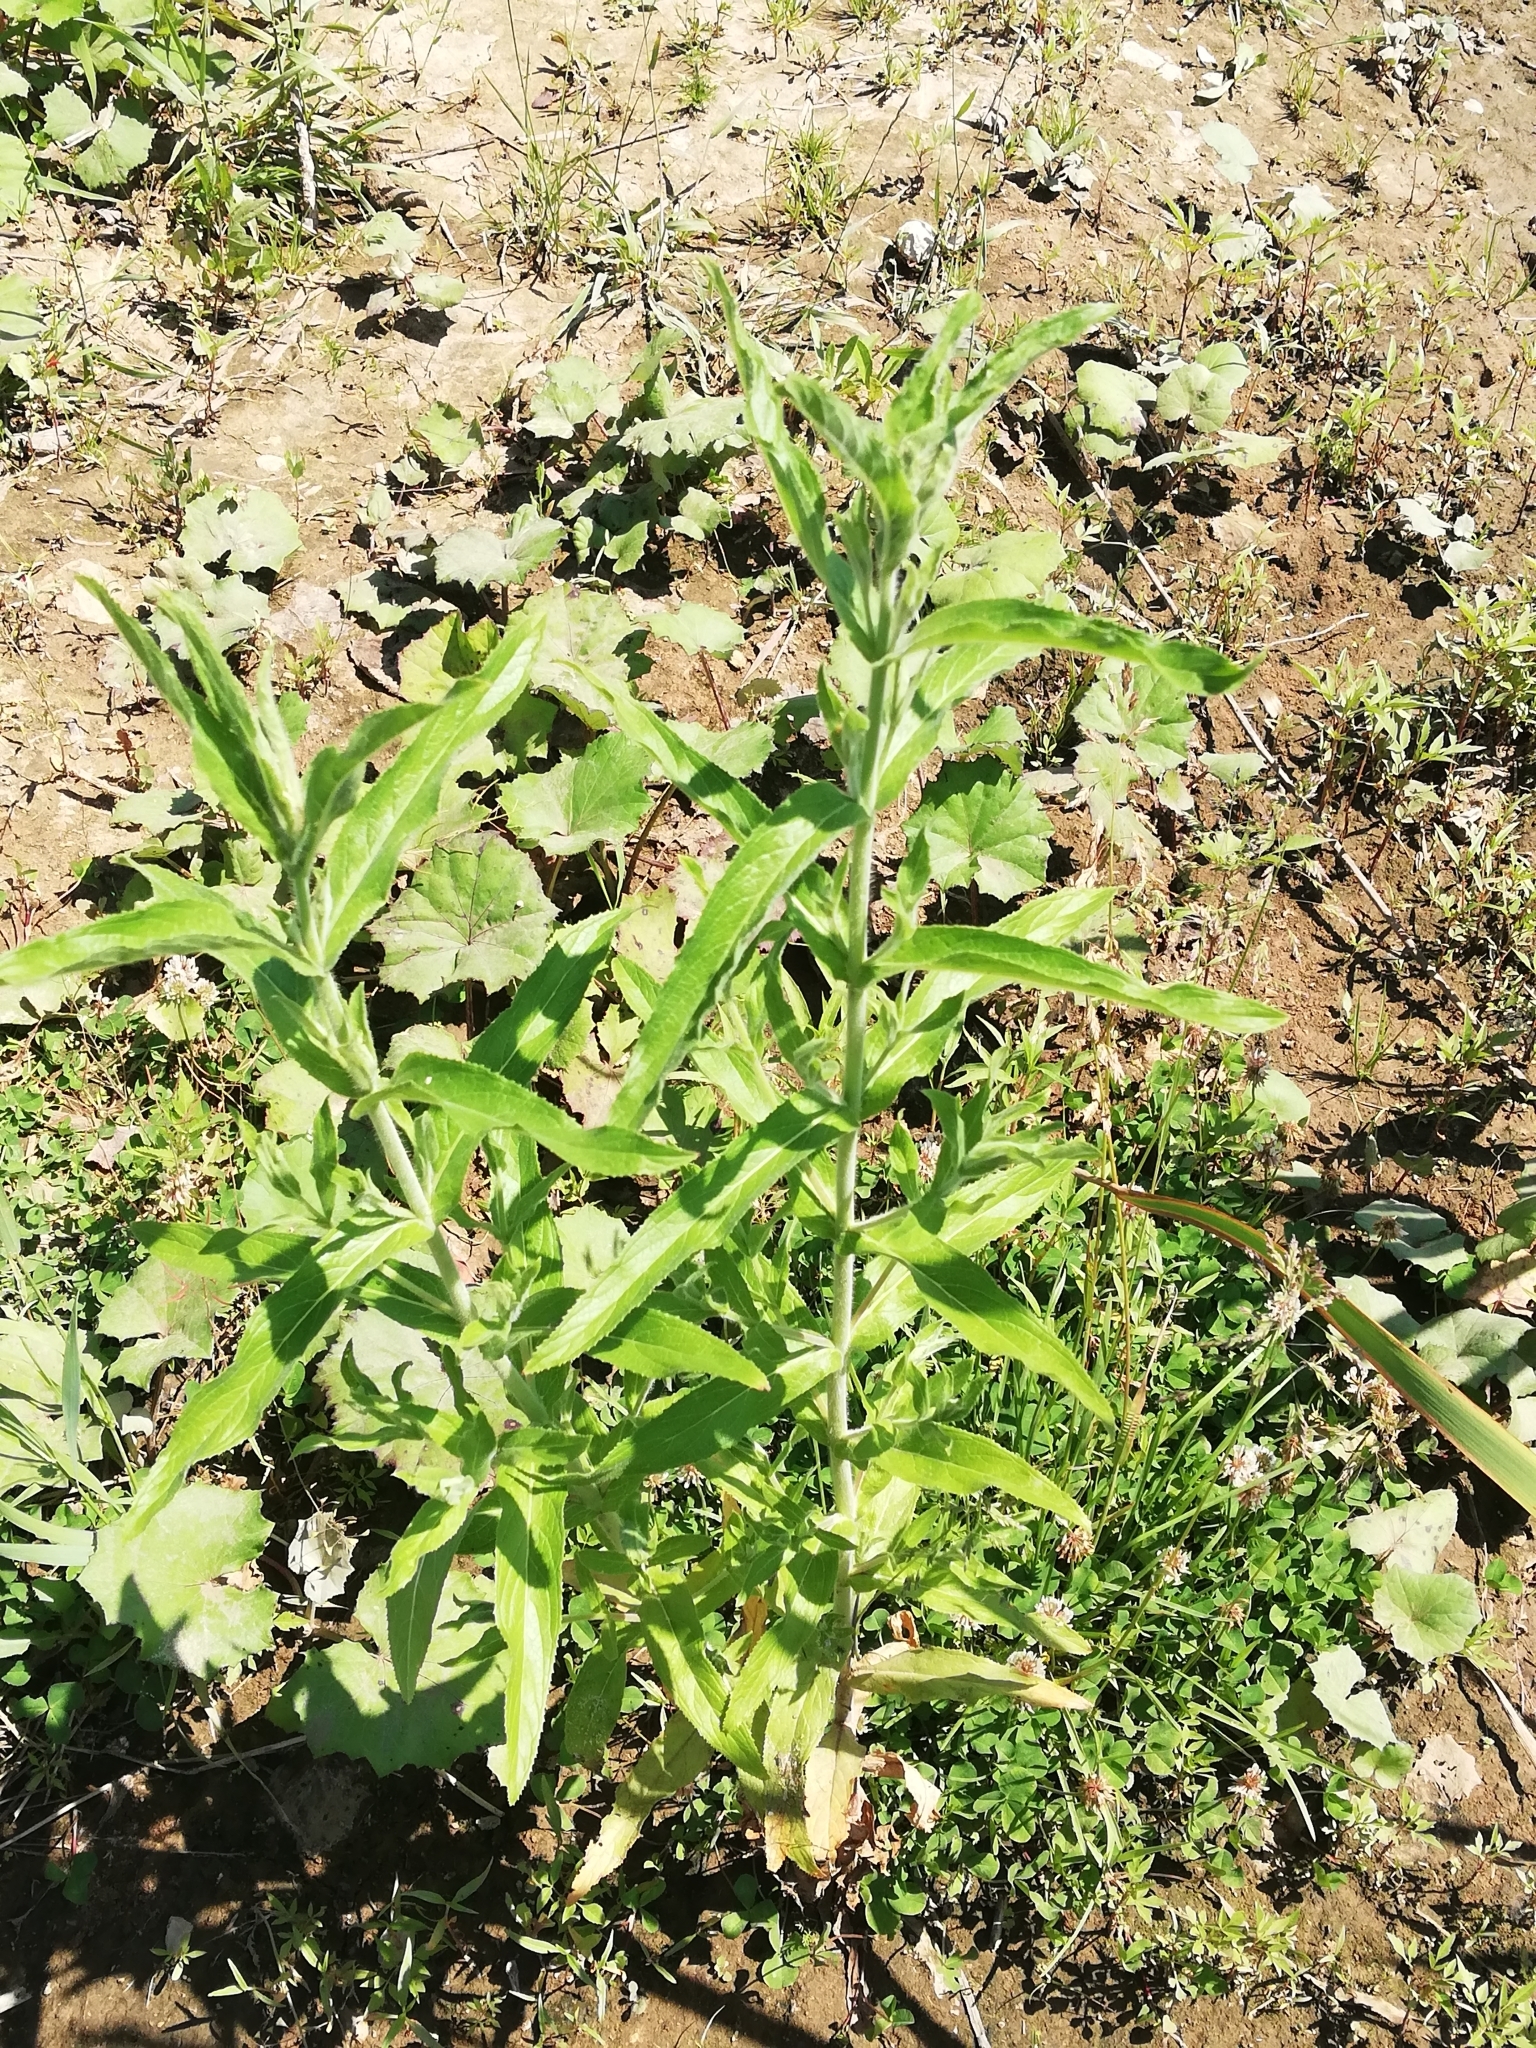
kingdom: Plantae
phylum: Tracheophyta
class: Magnoliopsida
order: Myrtales
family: Onagraceae
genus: Epilobium
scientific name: Epilobium hirsutum
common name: Great willowherb
